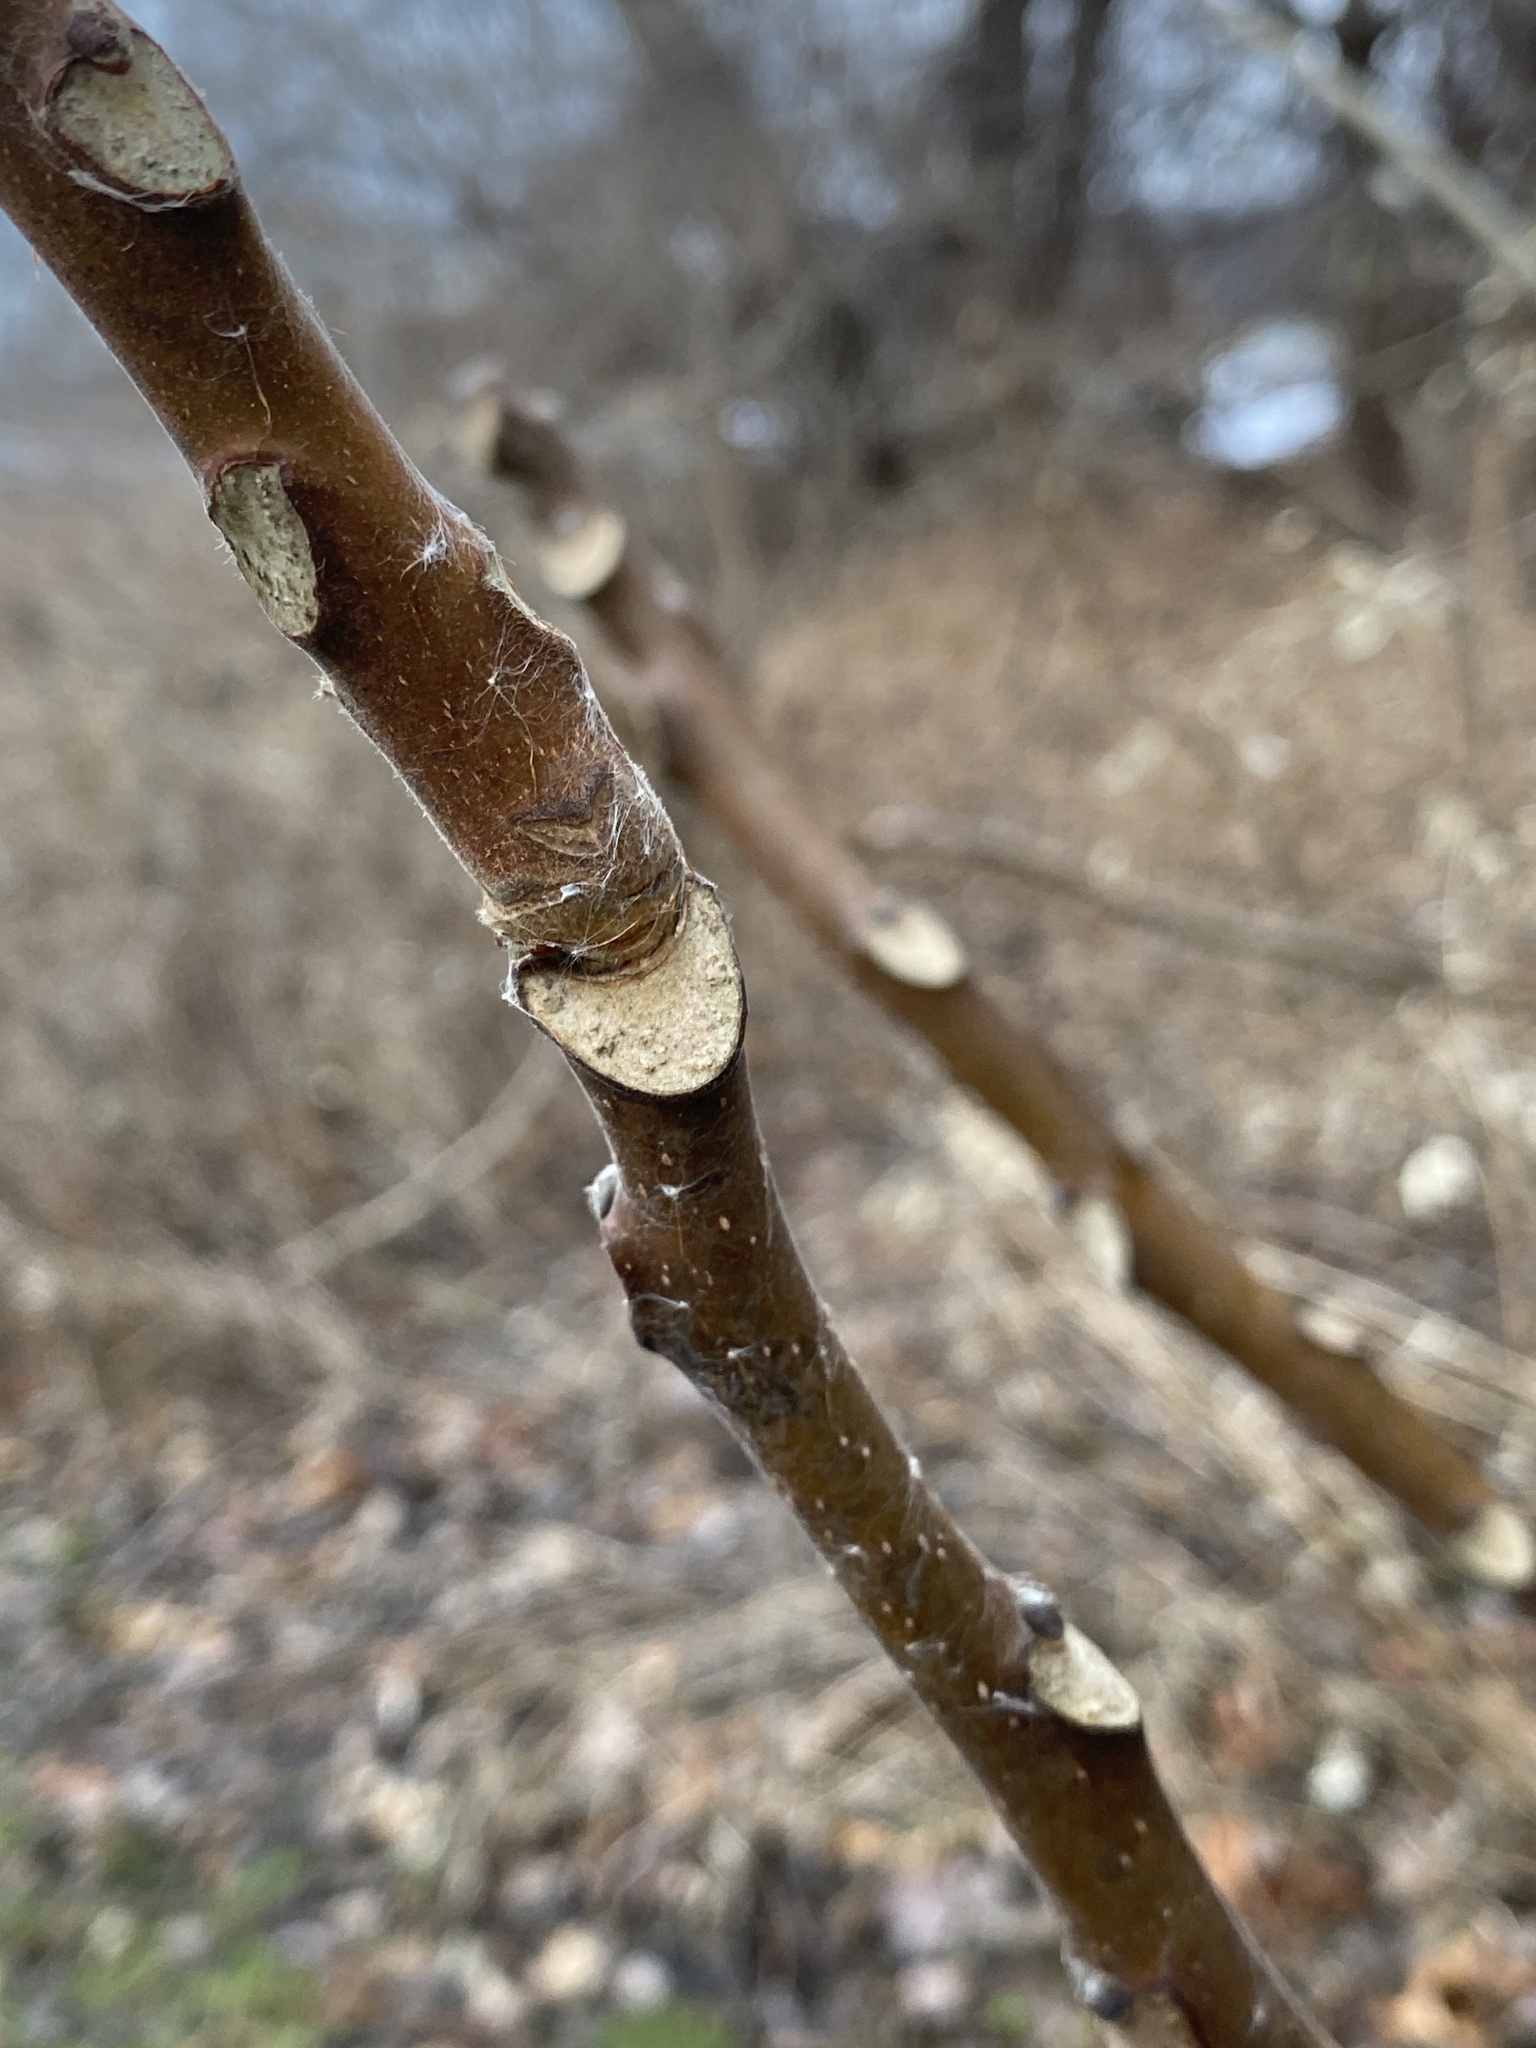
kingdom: Plantae
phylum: Tracheophyta
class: Magnoliopsida
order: Sapindales
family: Simaroubaceae
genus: Ailanthus
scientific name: Ailanthus altissima
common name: Tree-of-heaven
